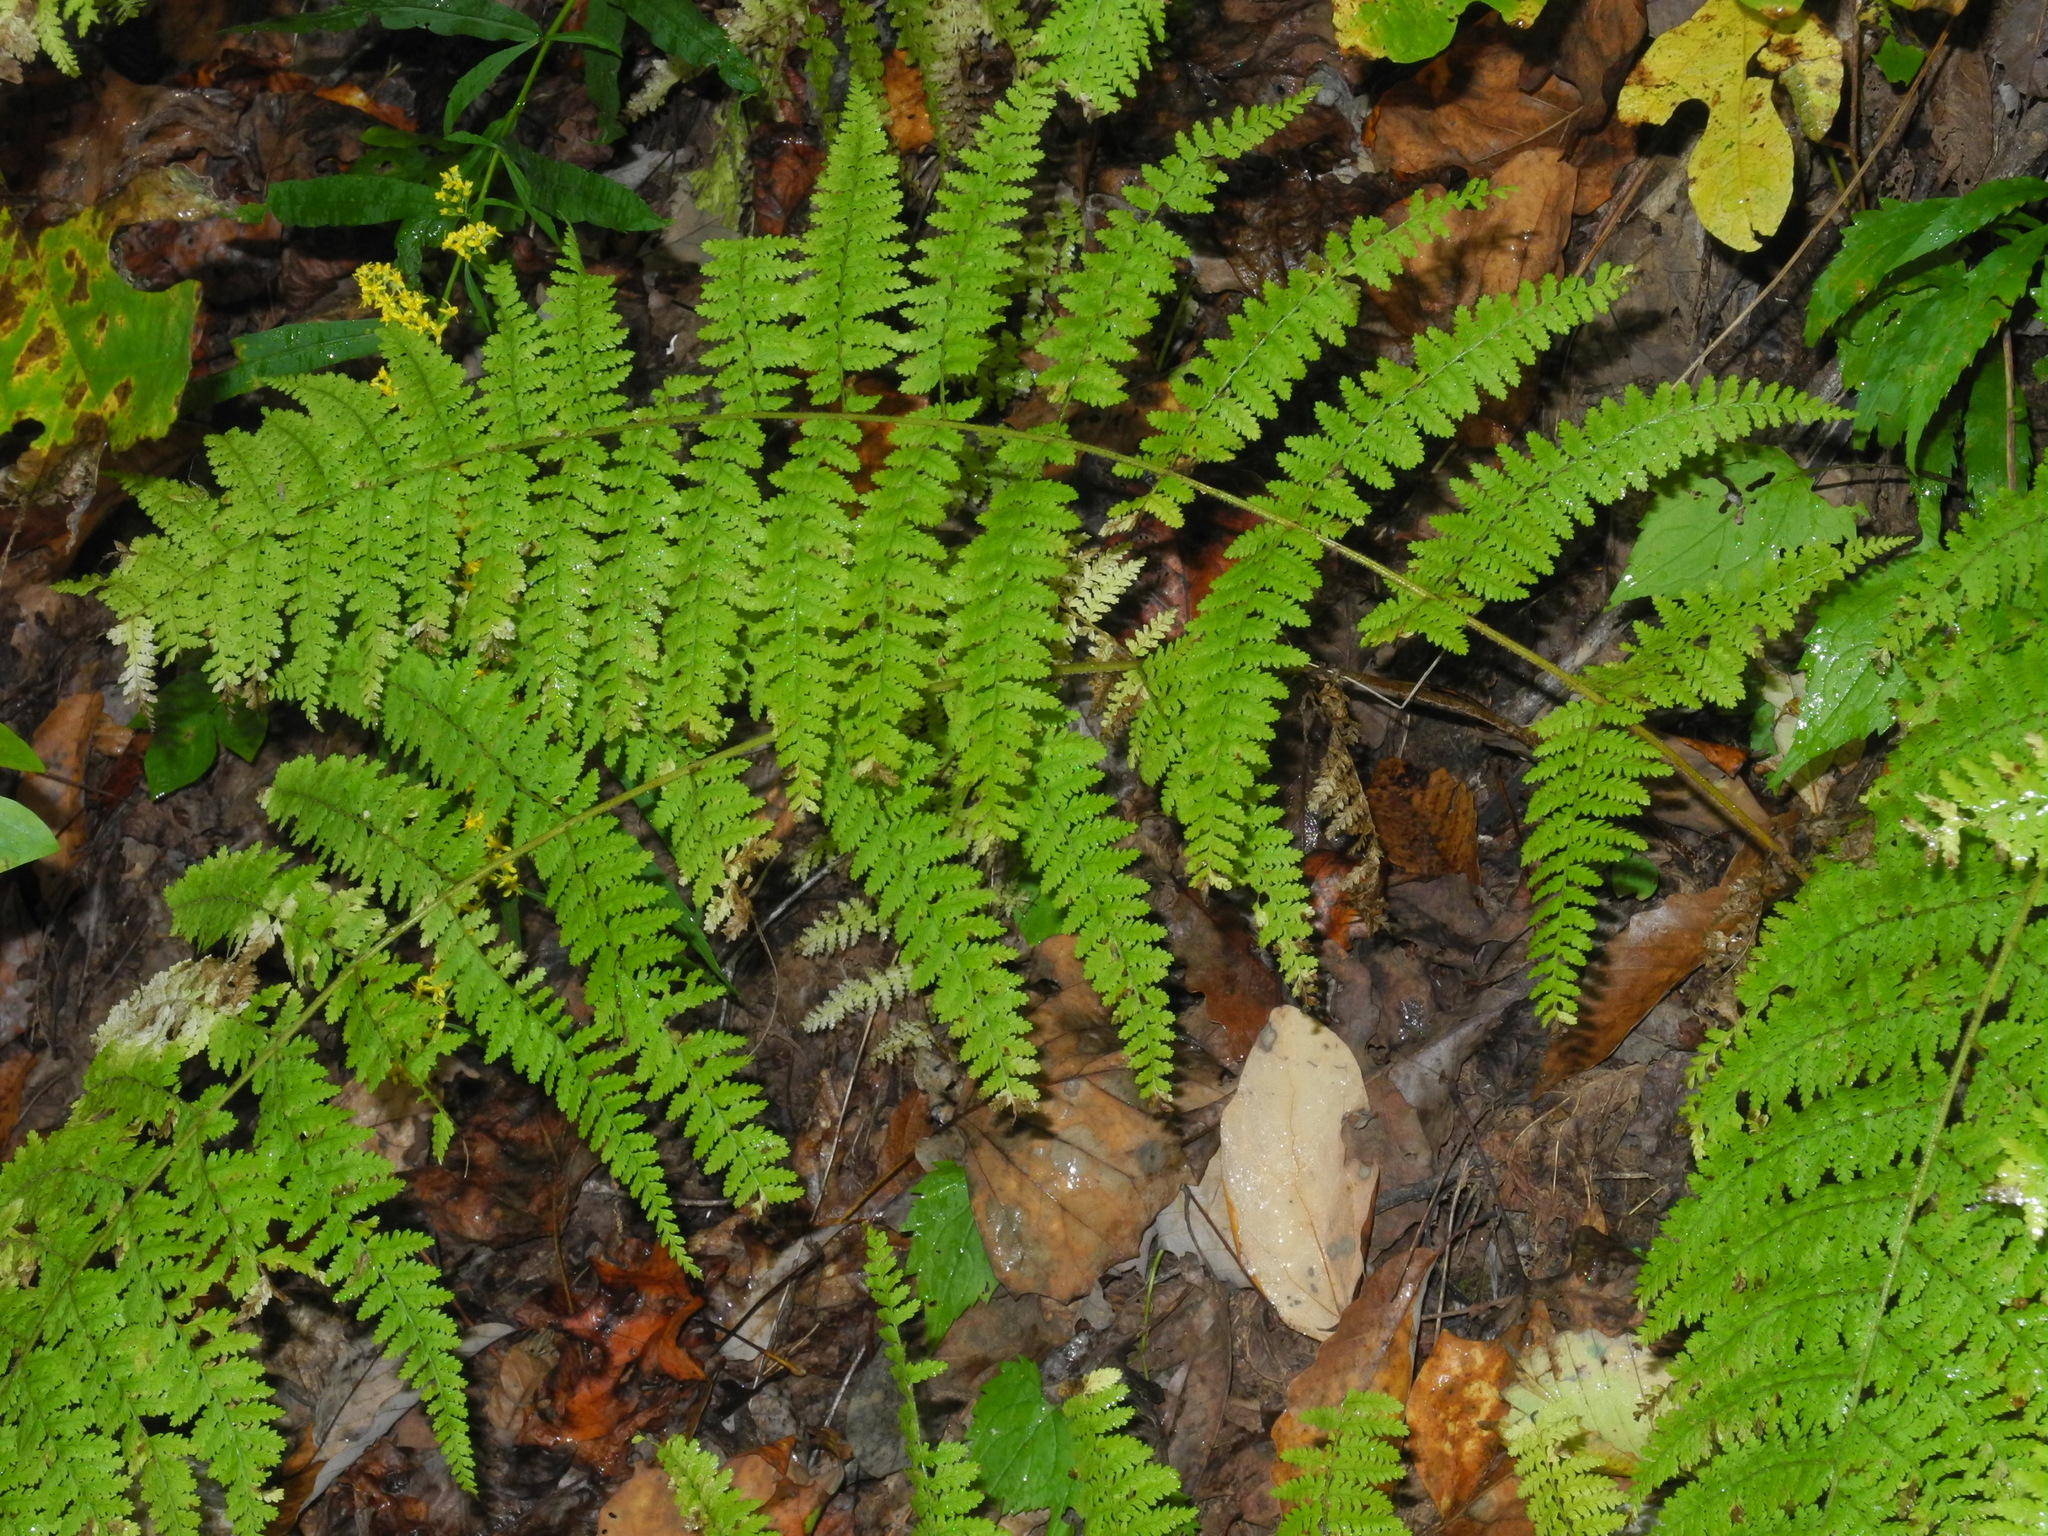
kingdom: Plantae
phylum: Tracheophyta
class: Polypodiopsida
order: Polypodiales
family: Dennstaedtiaceae
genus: Sitobolium
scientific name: Sitobolium punctilobum
